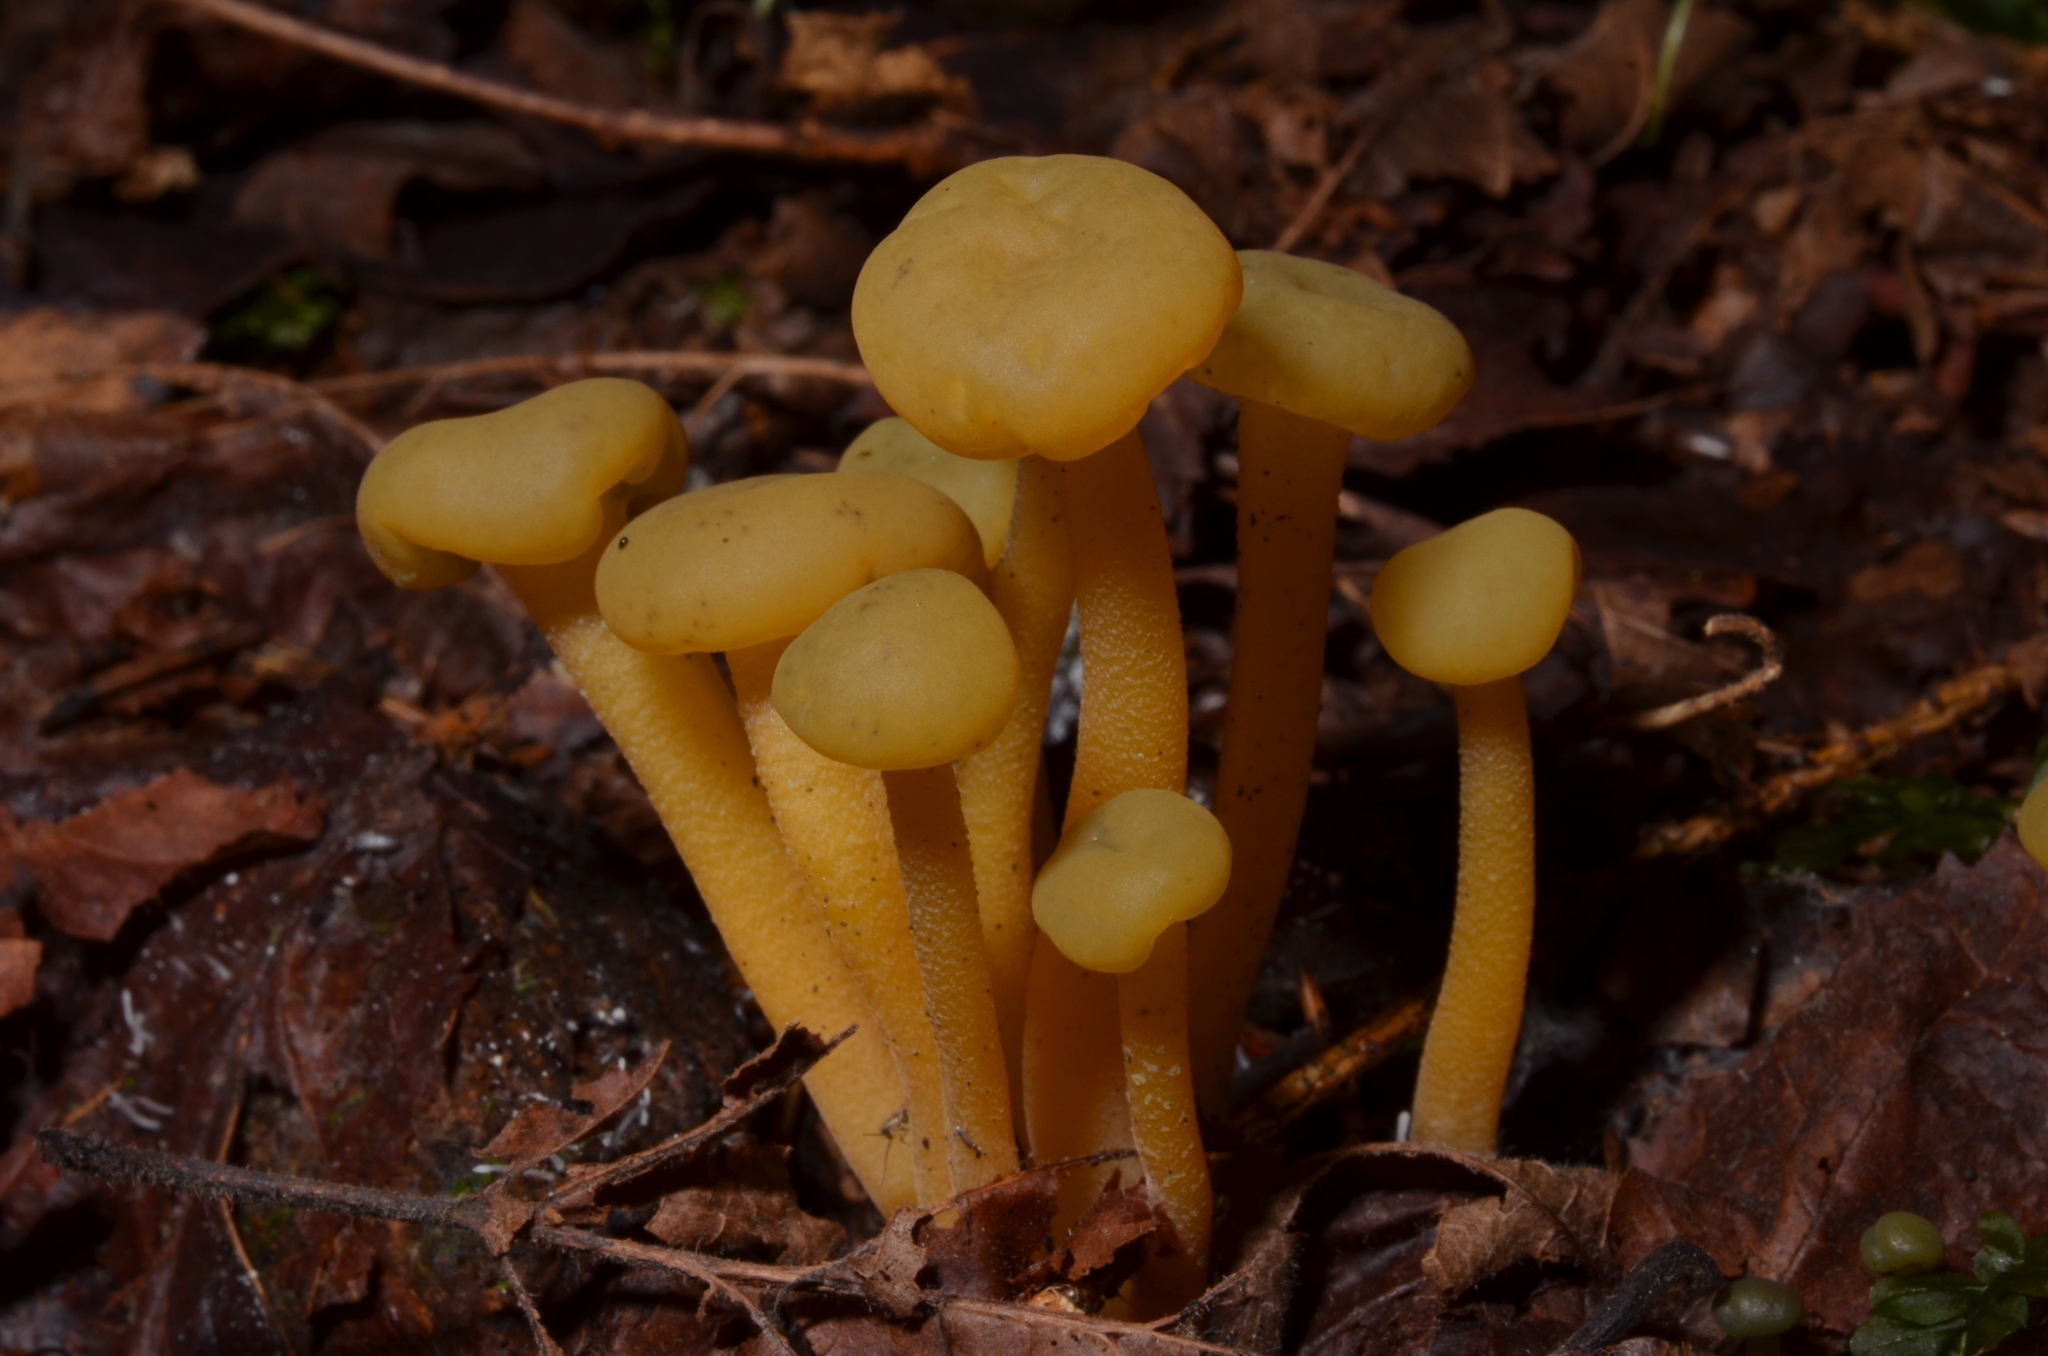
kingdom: Fungi
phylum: Ascomycota
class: Leotiomycetes
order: Leotiales
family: Leotiaceae
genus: Leotia
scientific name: Leotia lubrica
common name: Jellybaby
